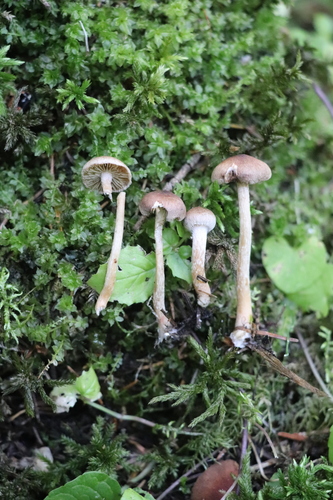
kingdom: Fungi
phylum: Basidiomycota
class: Agaricomycetes
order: Agaricales
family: Inocybaceae
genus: Inocybe
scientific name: Inocybe
